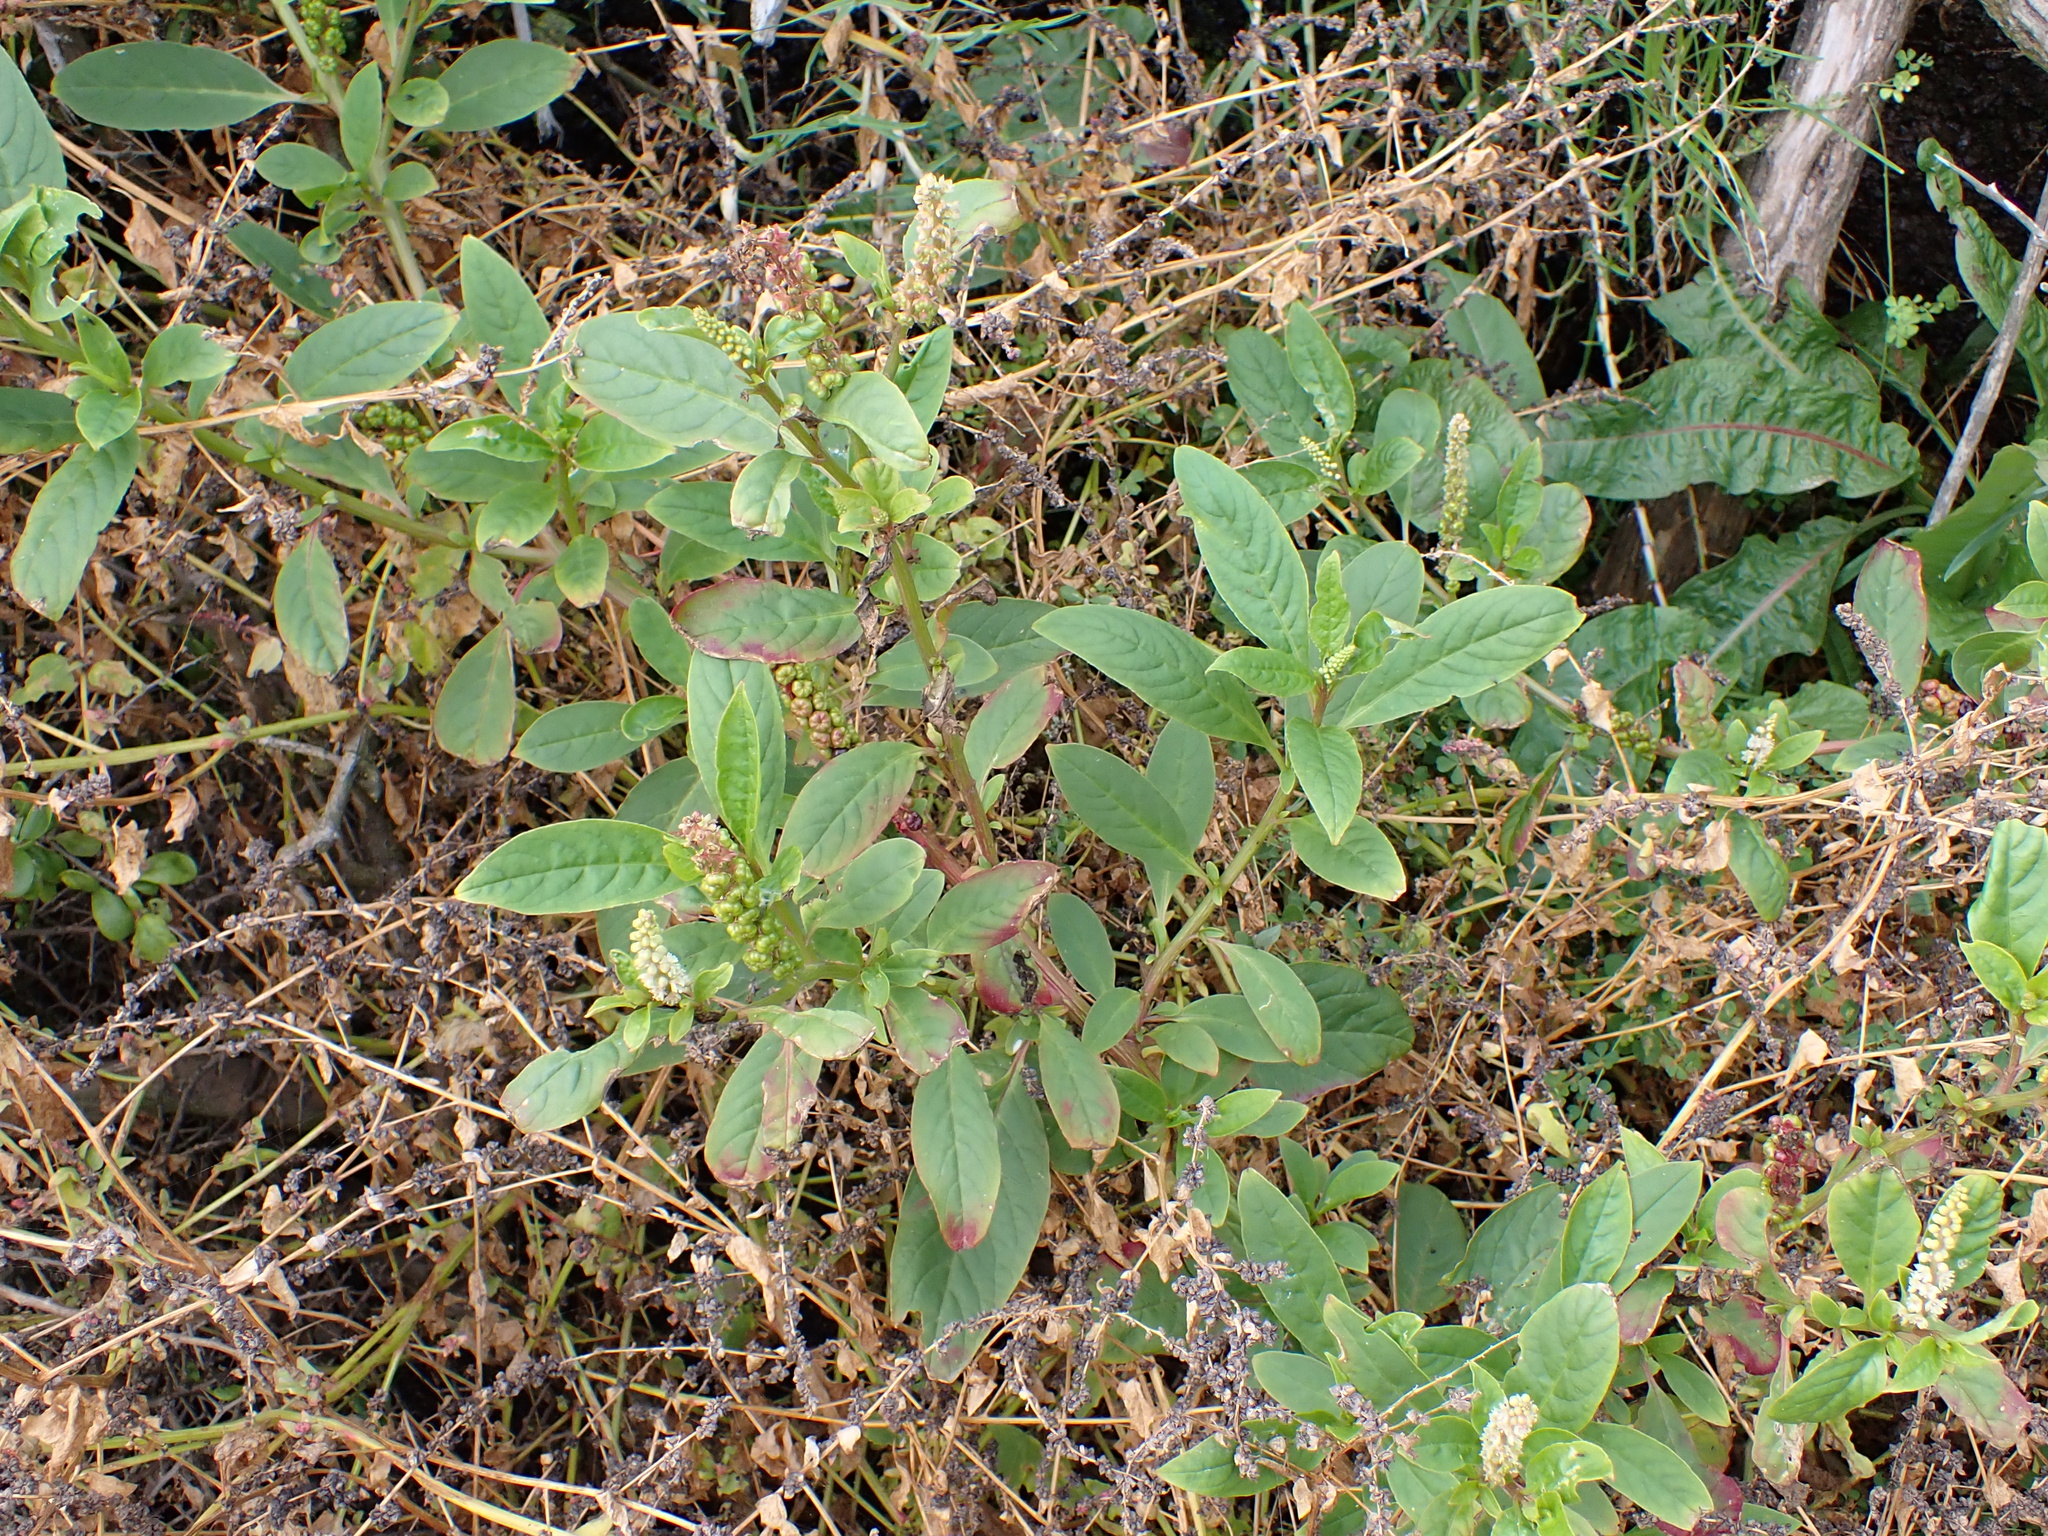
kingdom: Plantae
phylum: Tracheophyta
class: Magnoliopsida
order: Caryophyllales
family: Phytolaccaceae
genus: Phytolacca
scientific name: Phytolacca icosandra
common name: Button pokeweed
